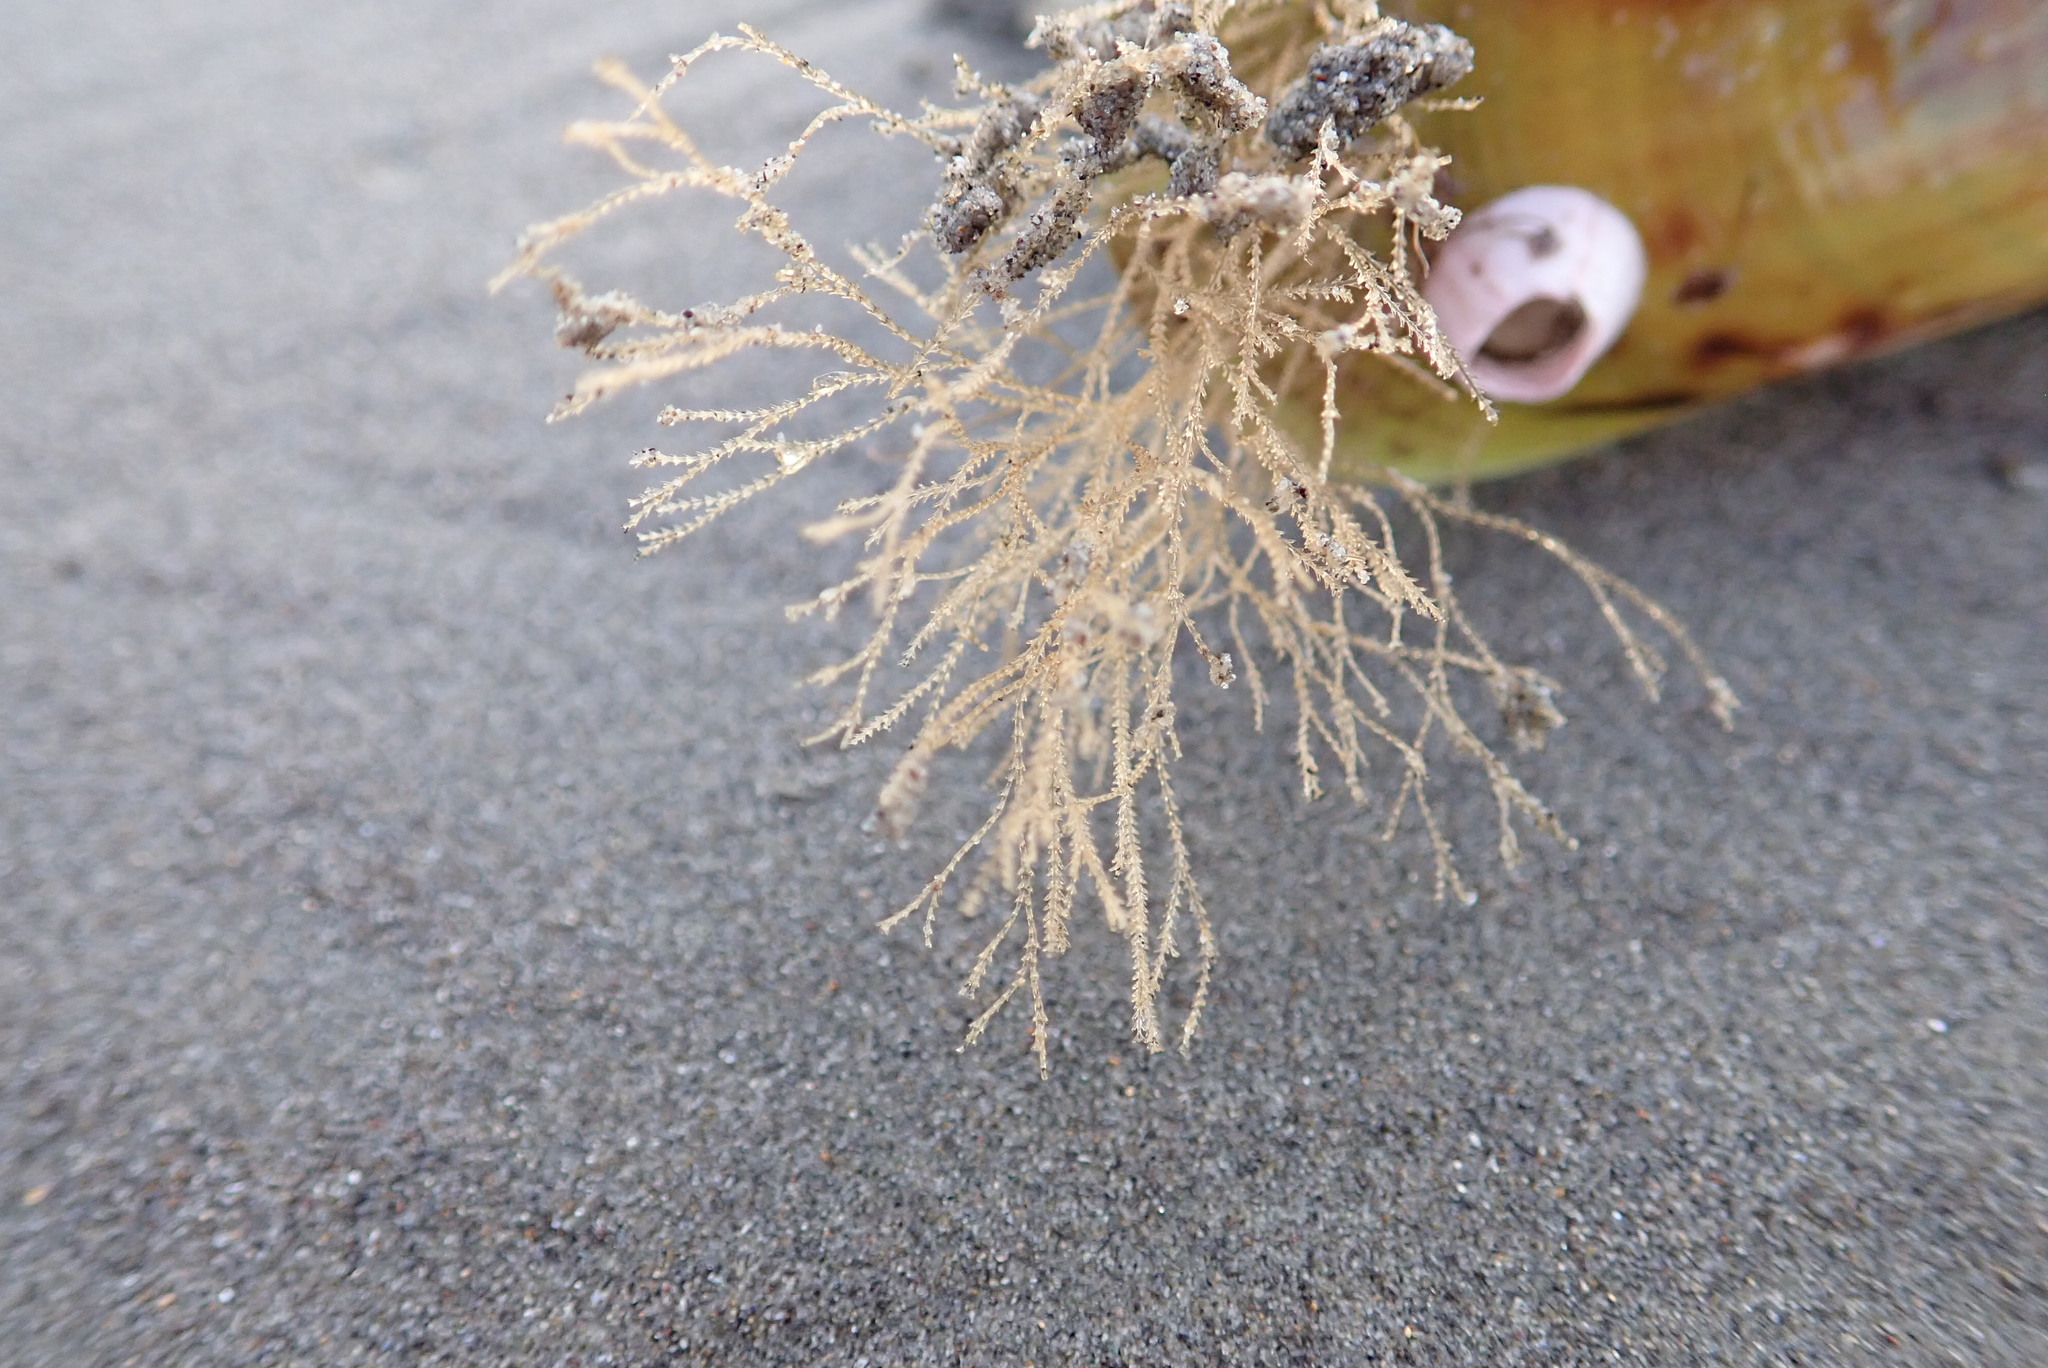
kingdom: Animalia
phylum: Cnidaria
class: Hydrozoa
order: Leptothecata
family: Sertulariidae
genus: Amphisbetia
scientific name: Amphisbetia bispinosa
